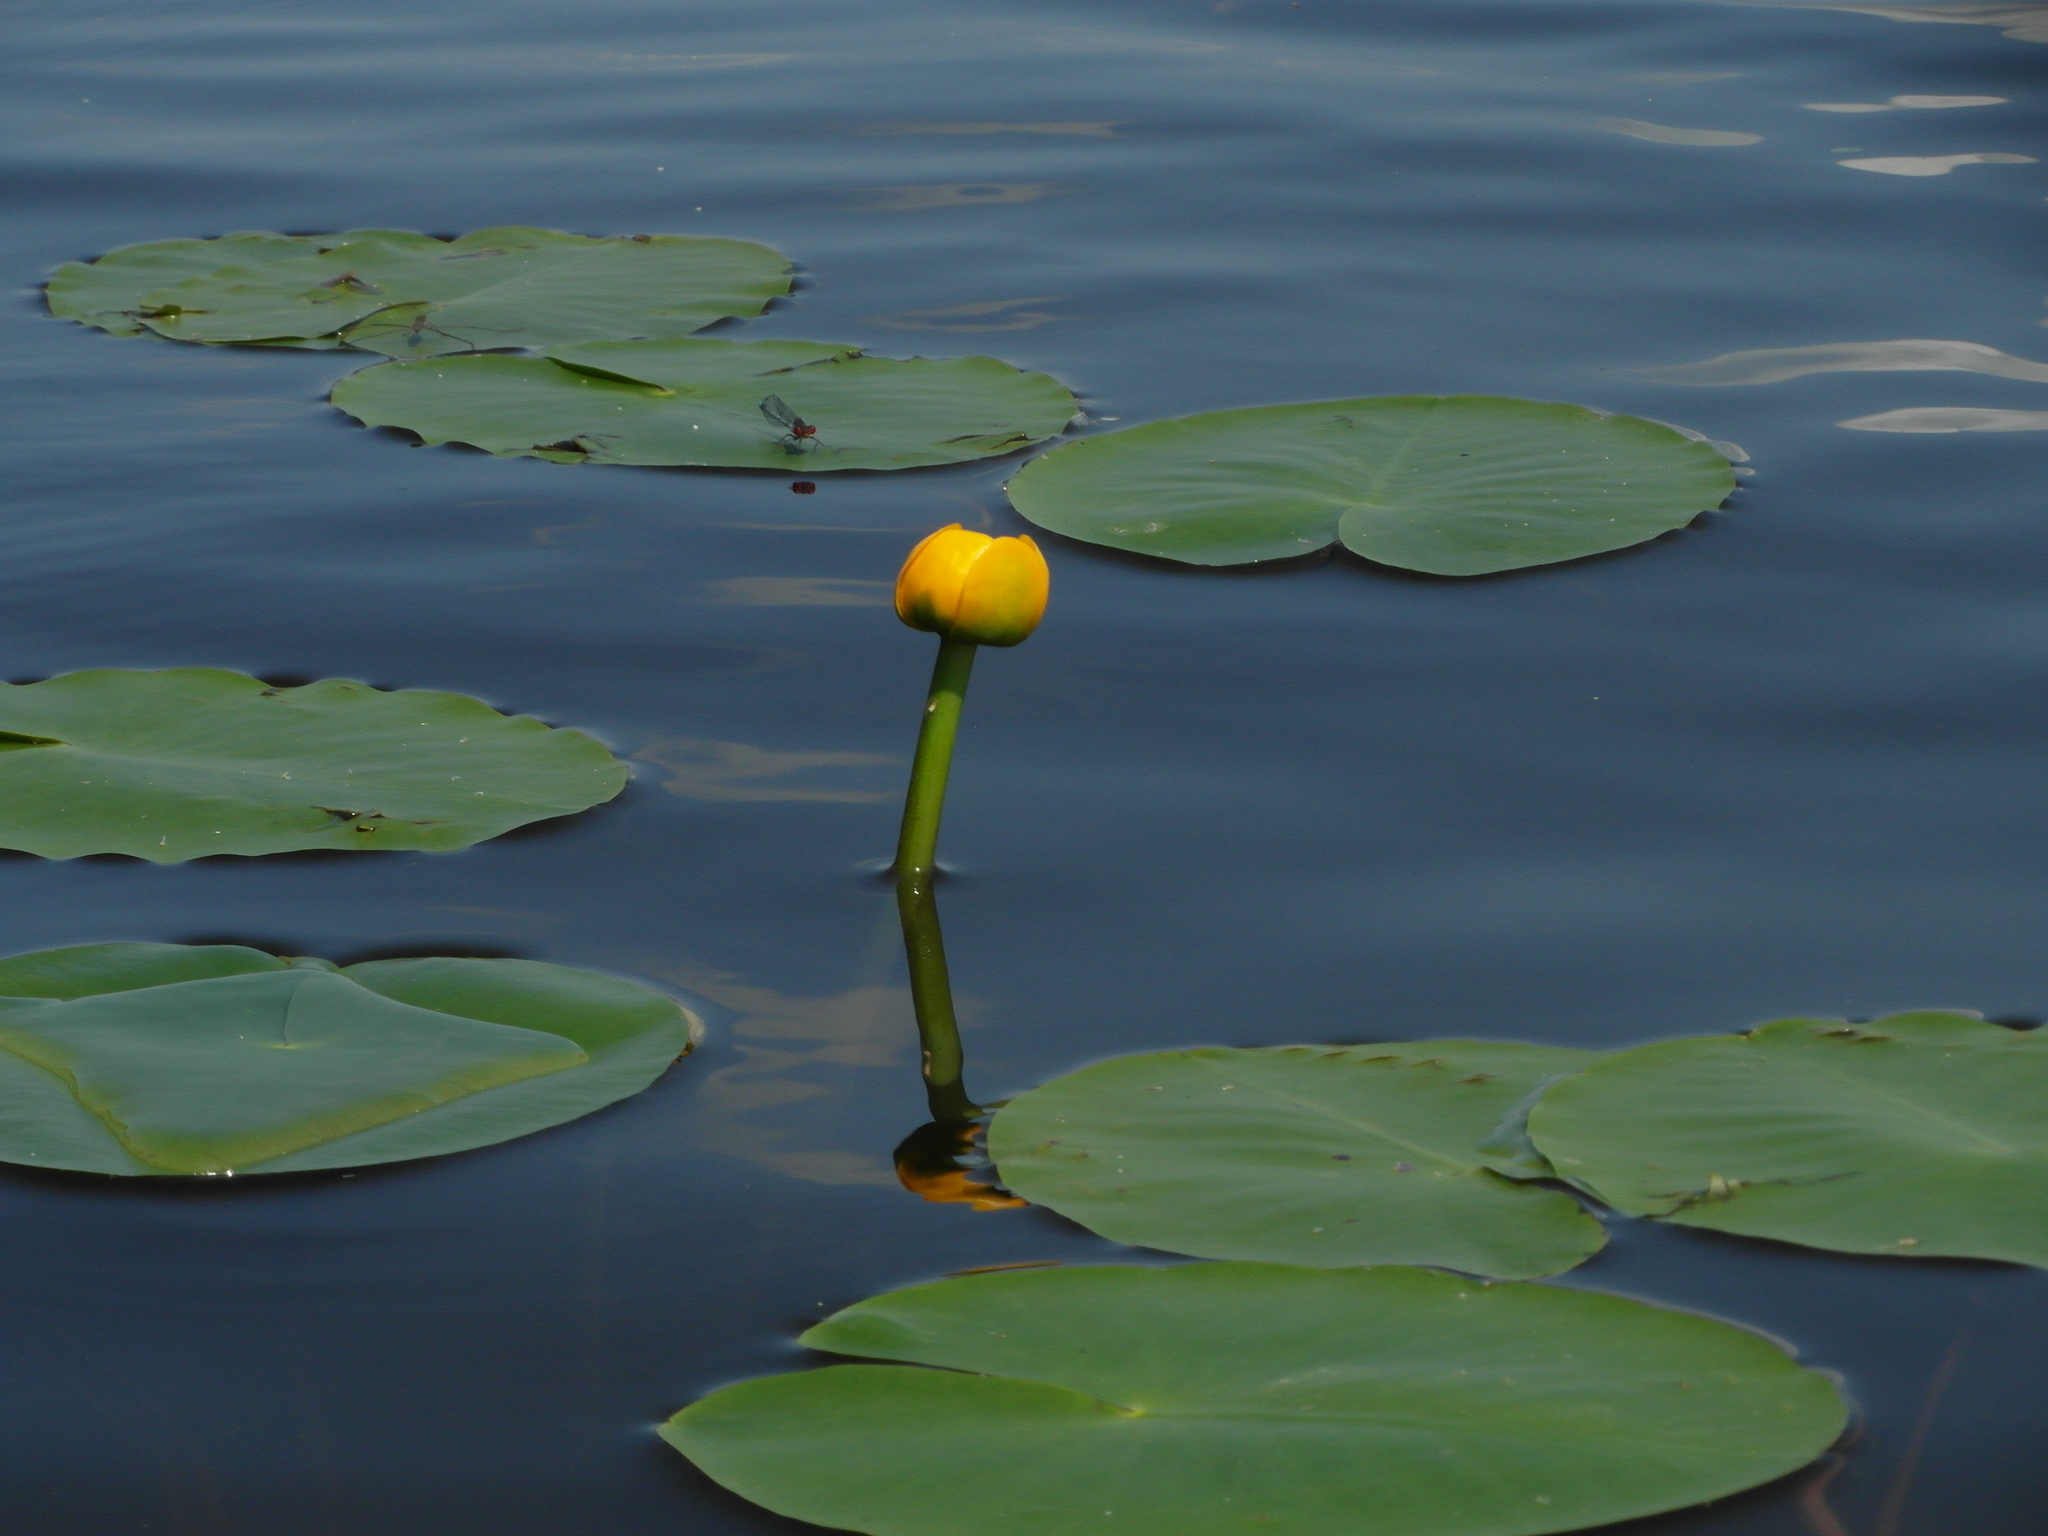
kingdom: Plantae
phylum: Tracheophyta
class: Magnoliopsida
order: Nymphaeales
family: Nymphaeaceae
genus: Nuphar
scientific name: Nuphar lutea
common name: Yellow water-lily
